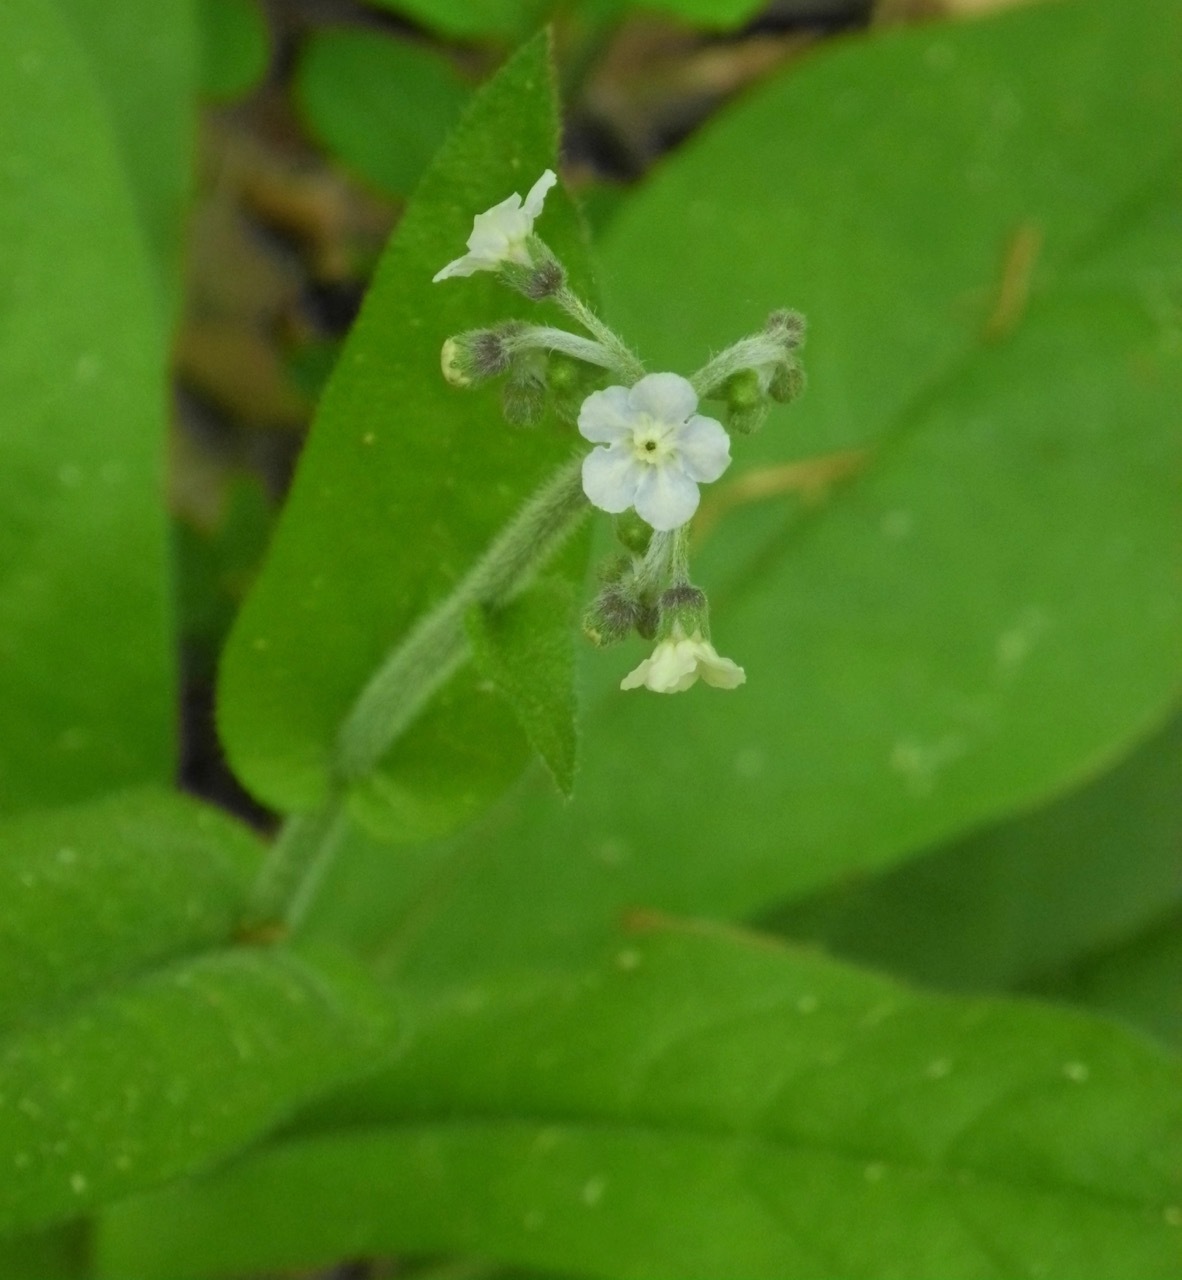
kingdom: Plantae
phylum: Tracheophyta
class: Magnoliopsida
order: Boraginales
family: Boraginaceae
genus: Andersonglossum
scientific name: Andersonglossum virginianum
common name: Wild comfrey
